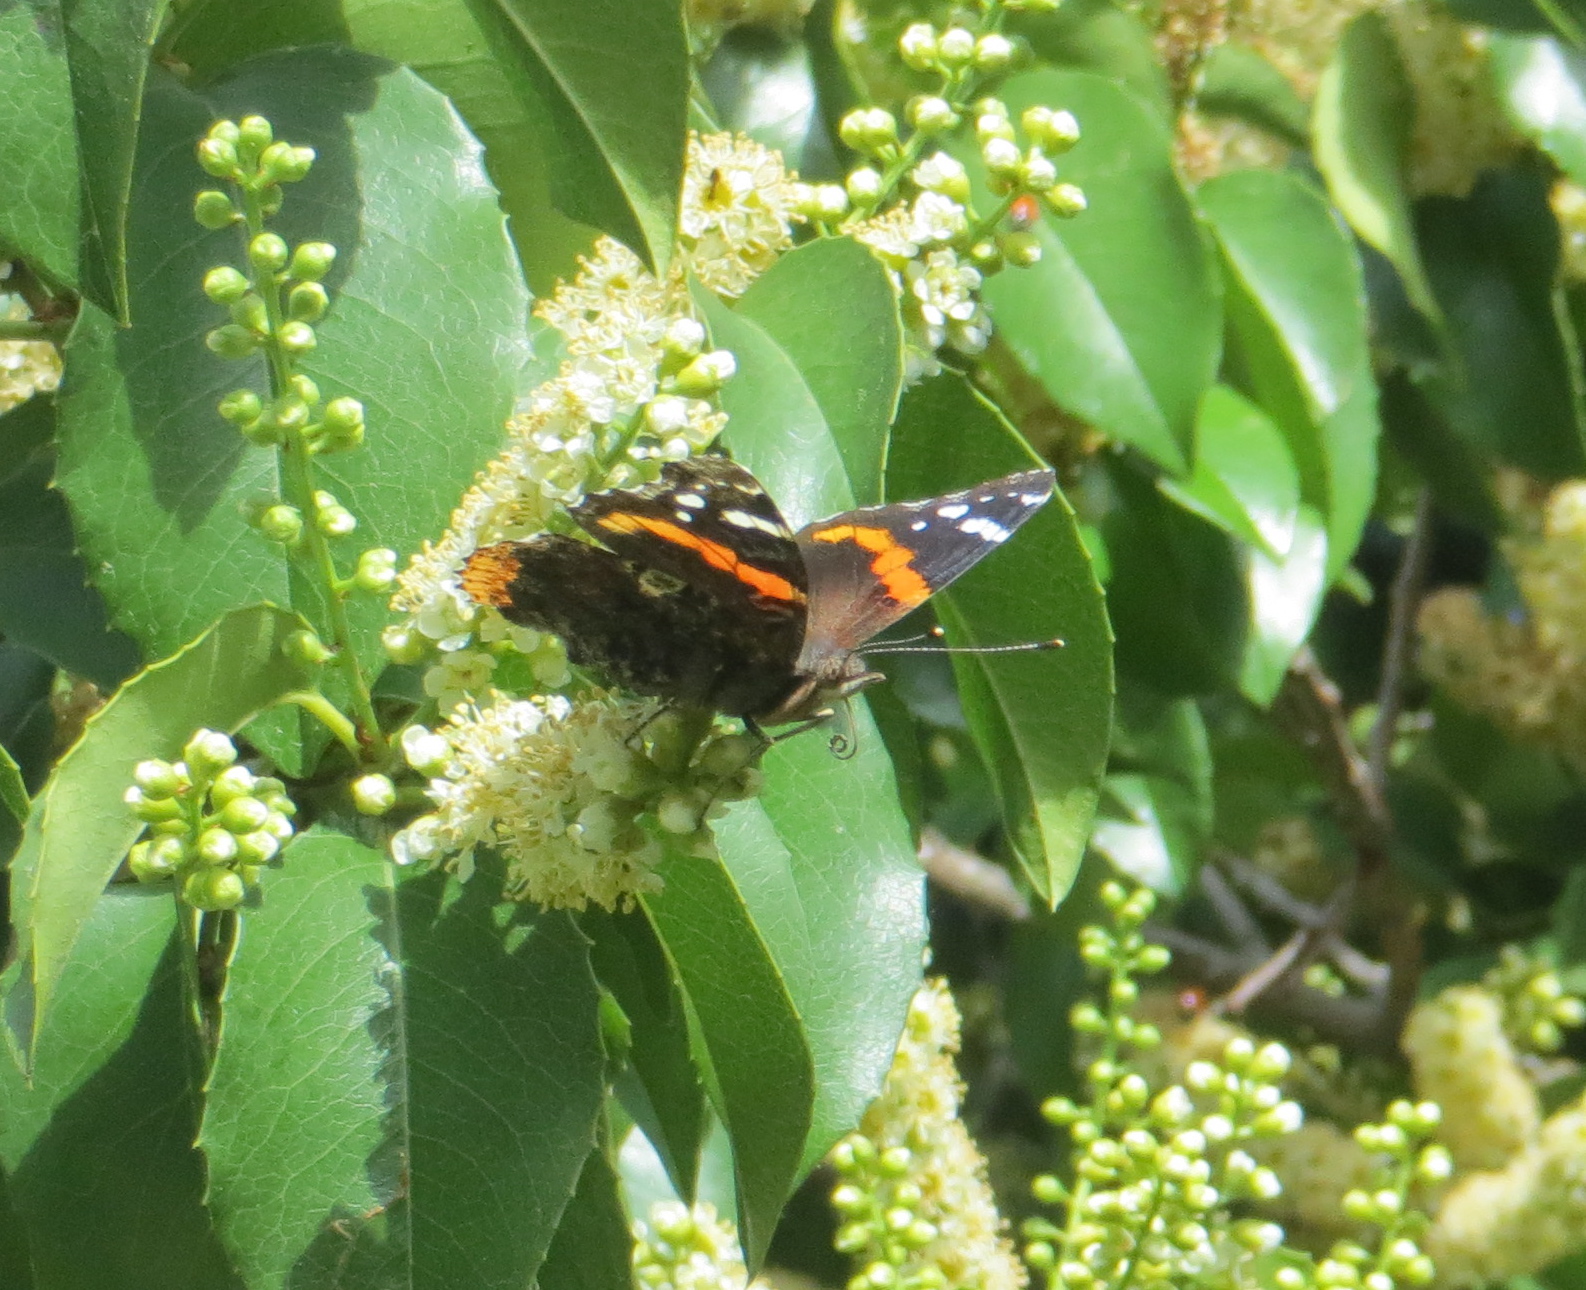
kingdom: Animalia
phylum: Arthropoda
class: Insecta
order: Lepidoptera
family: Nymphalidae
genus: Vanessa
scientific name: Vanessa atalanta
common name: Red admiral
